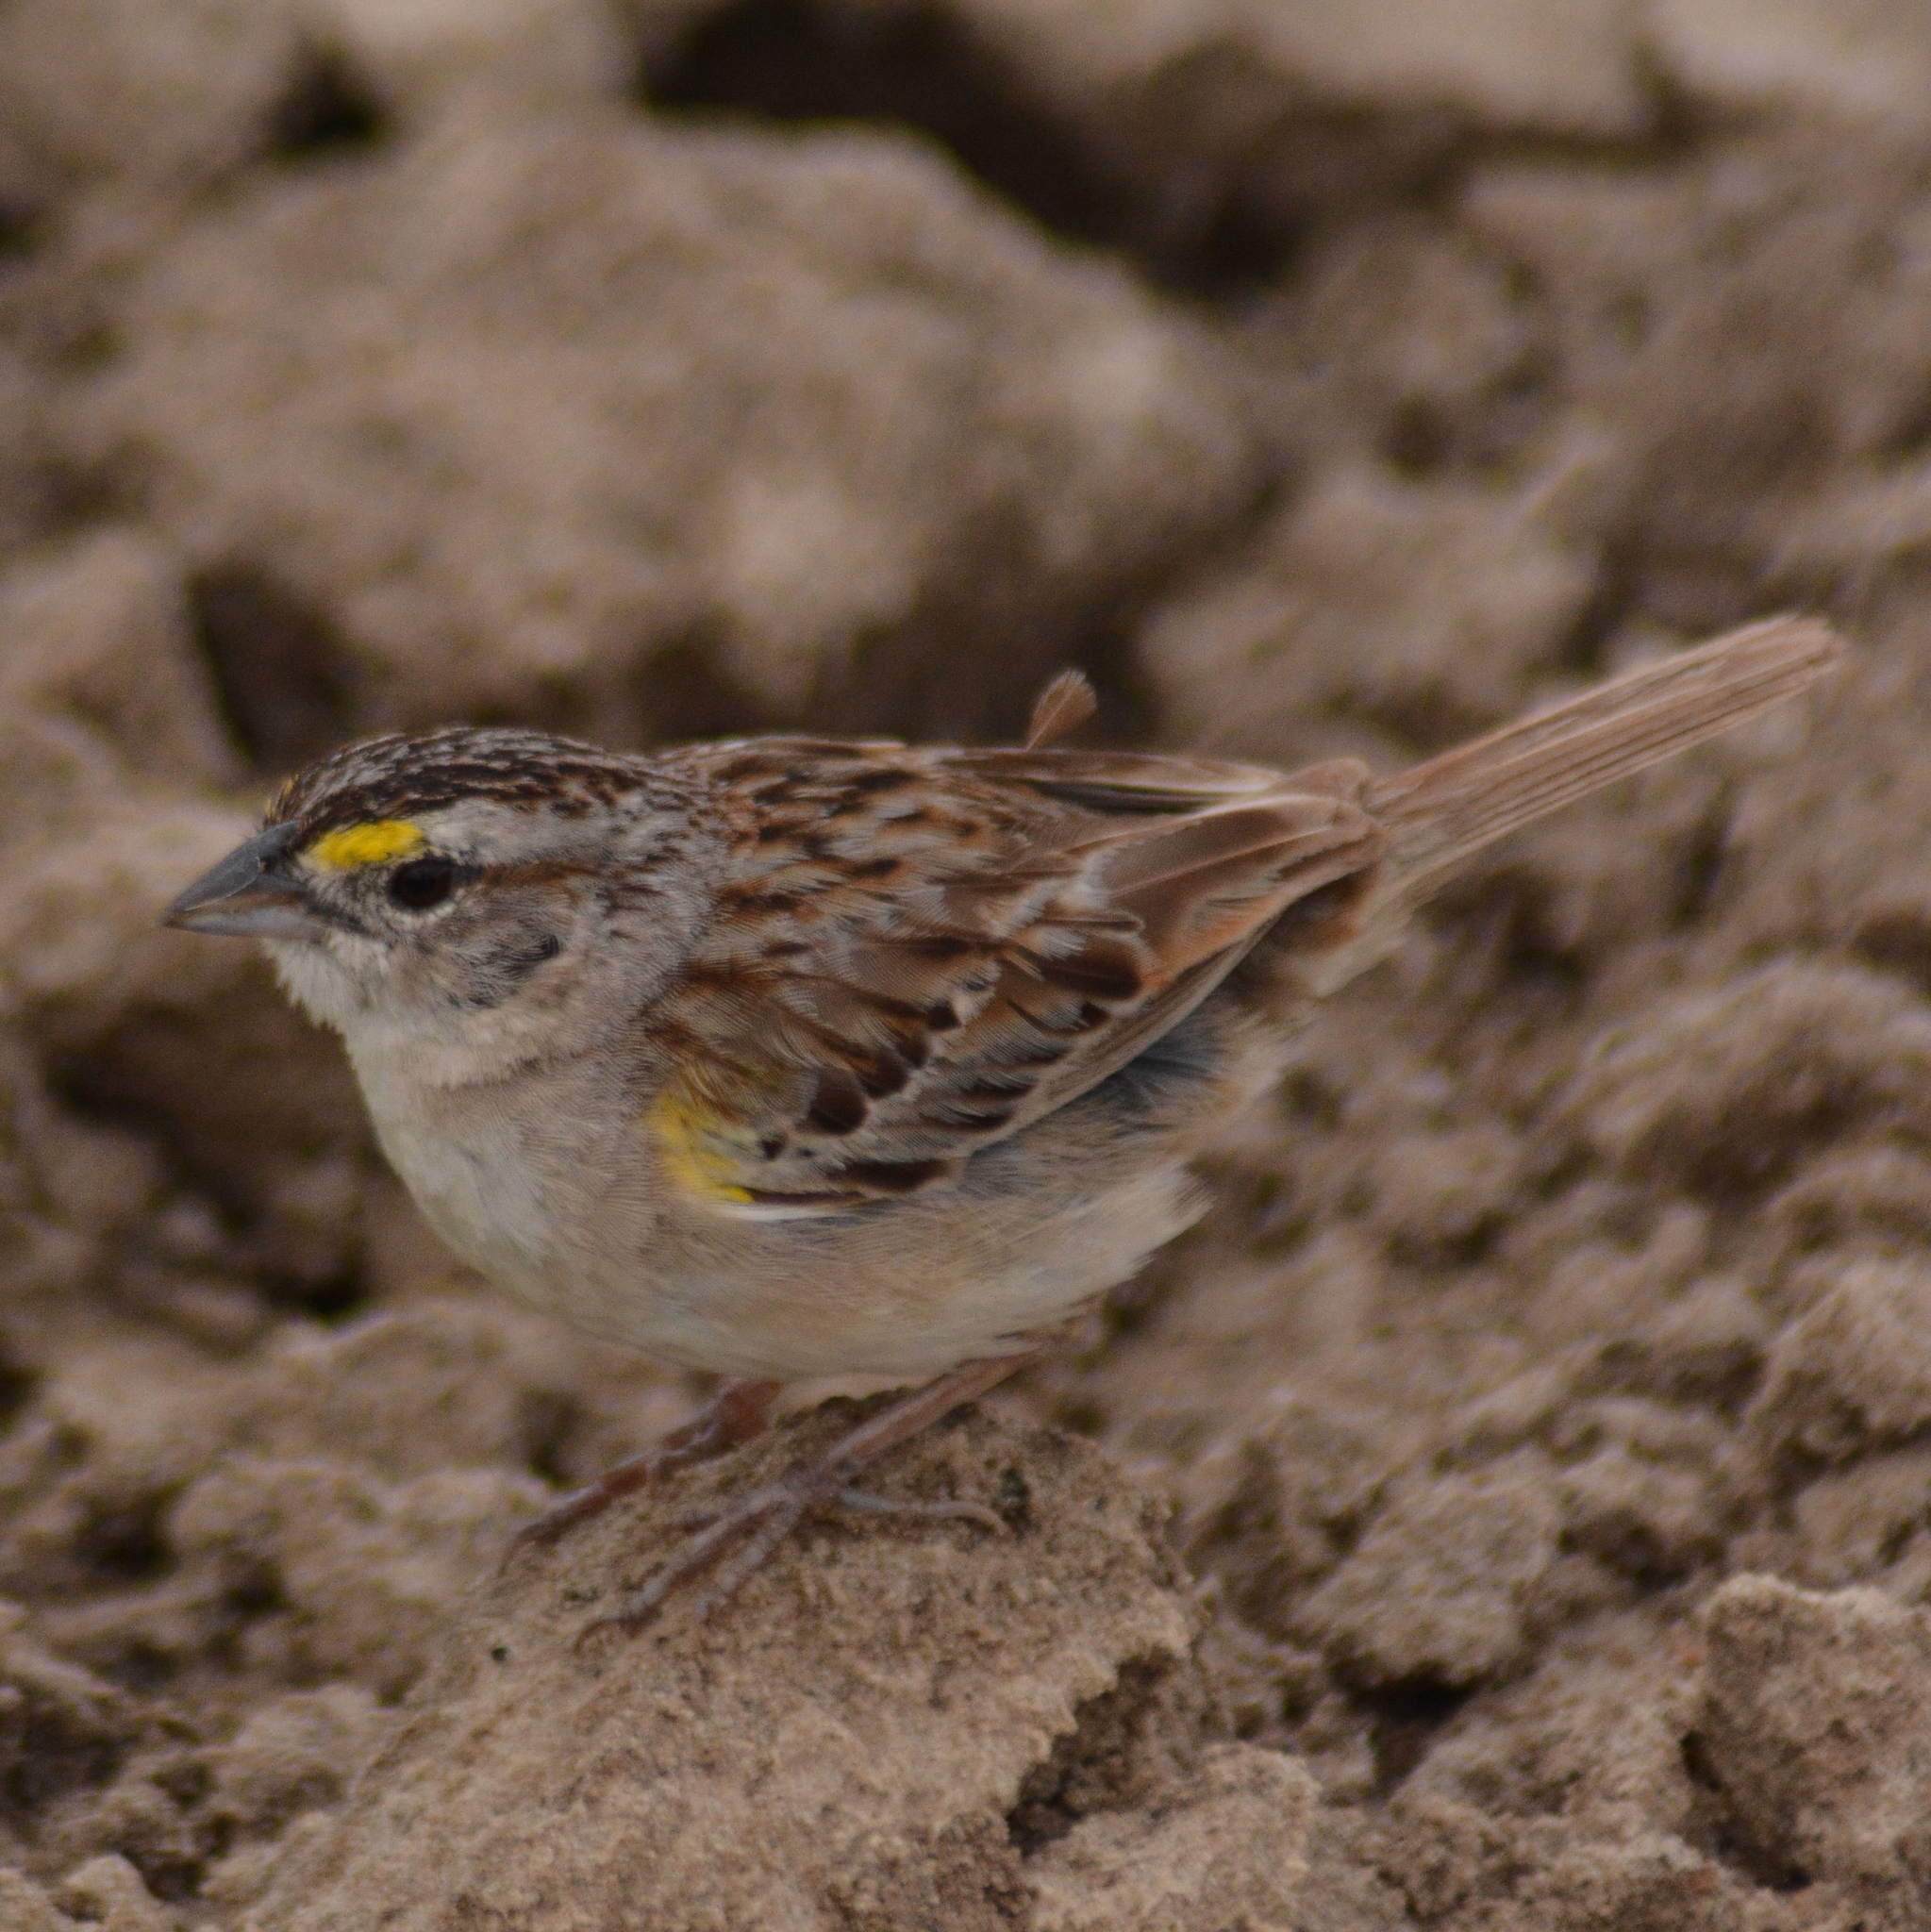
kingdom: Animalia
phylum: Chordata
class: Aves
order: Passeriformes
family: Passerellidae
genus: Ammodramus
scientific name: Ammodramus humeralis
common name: Grassland sparrow
